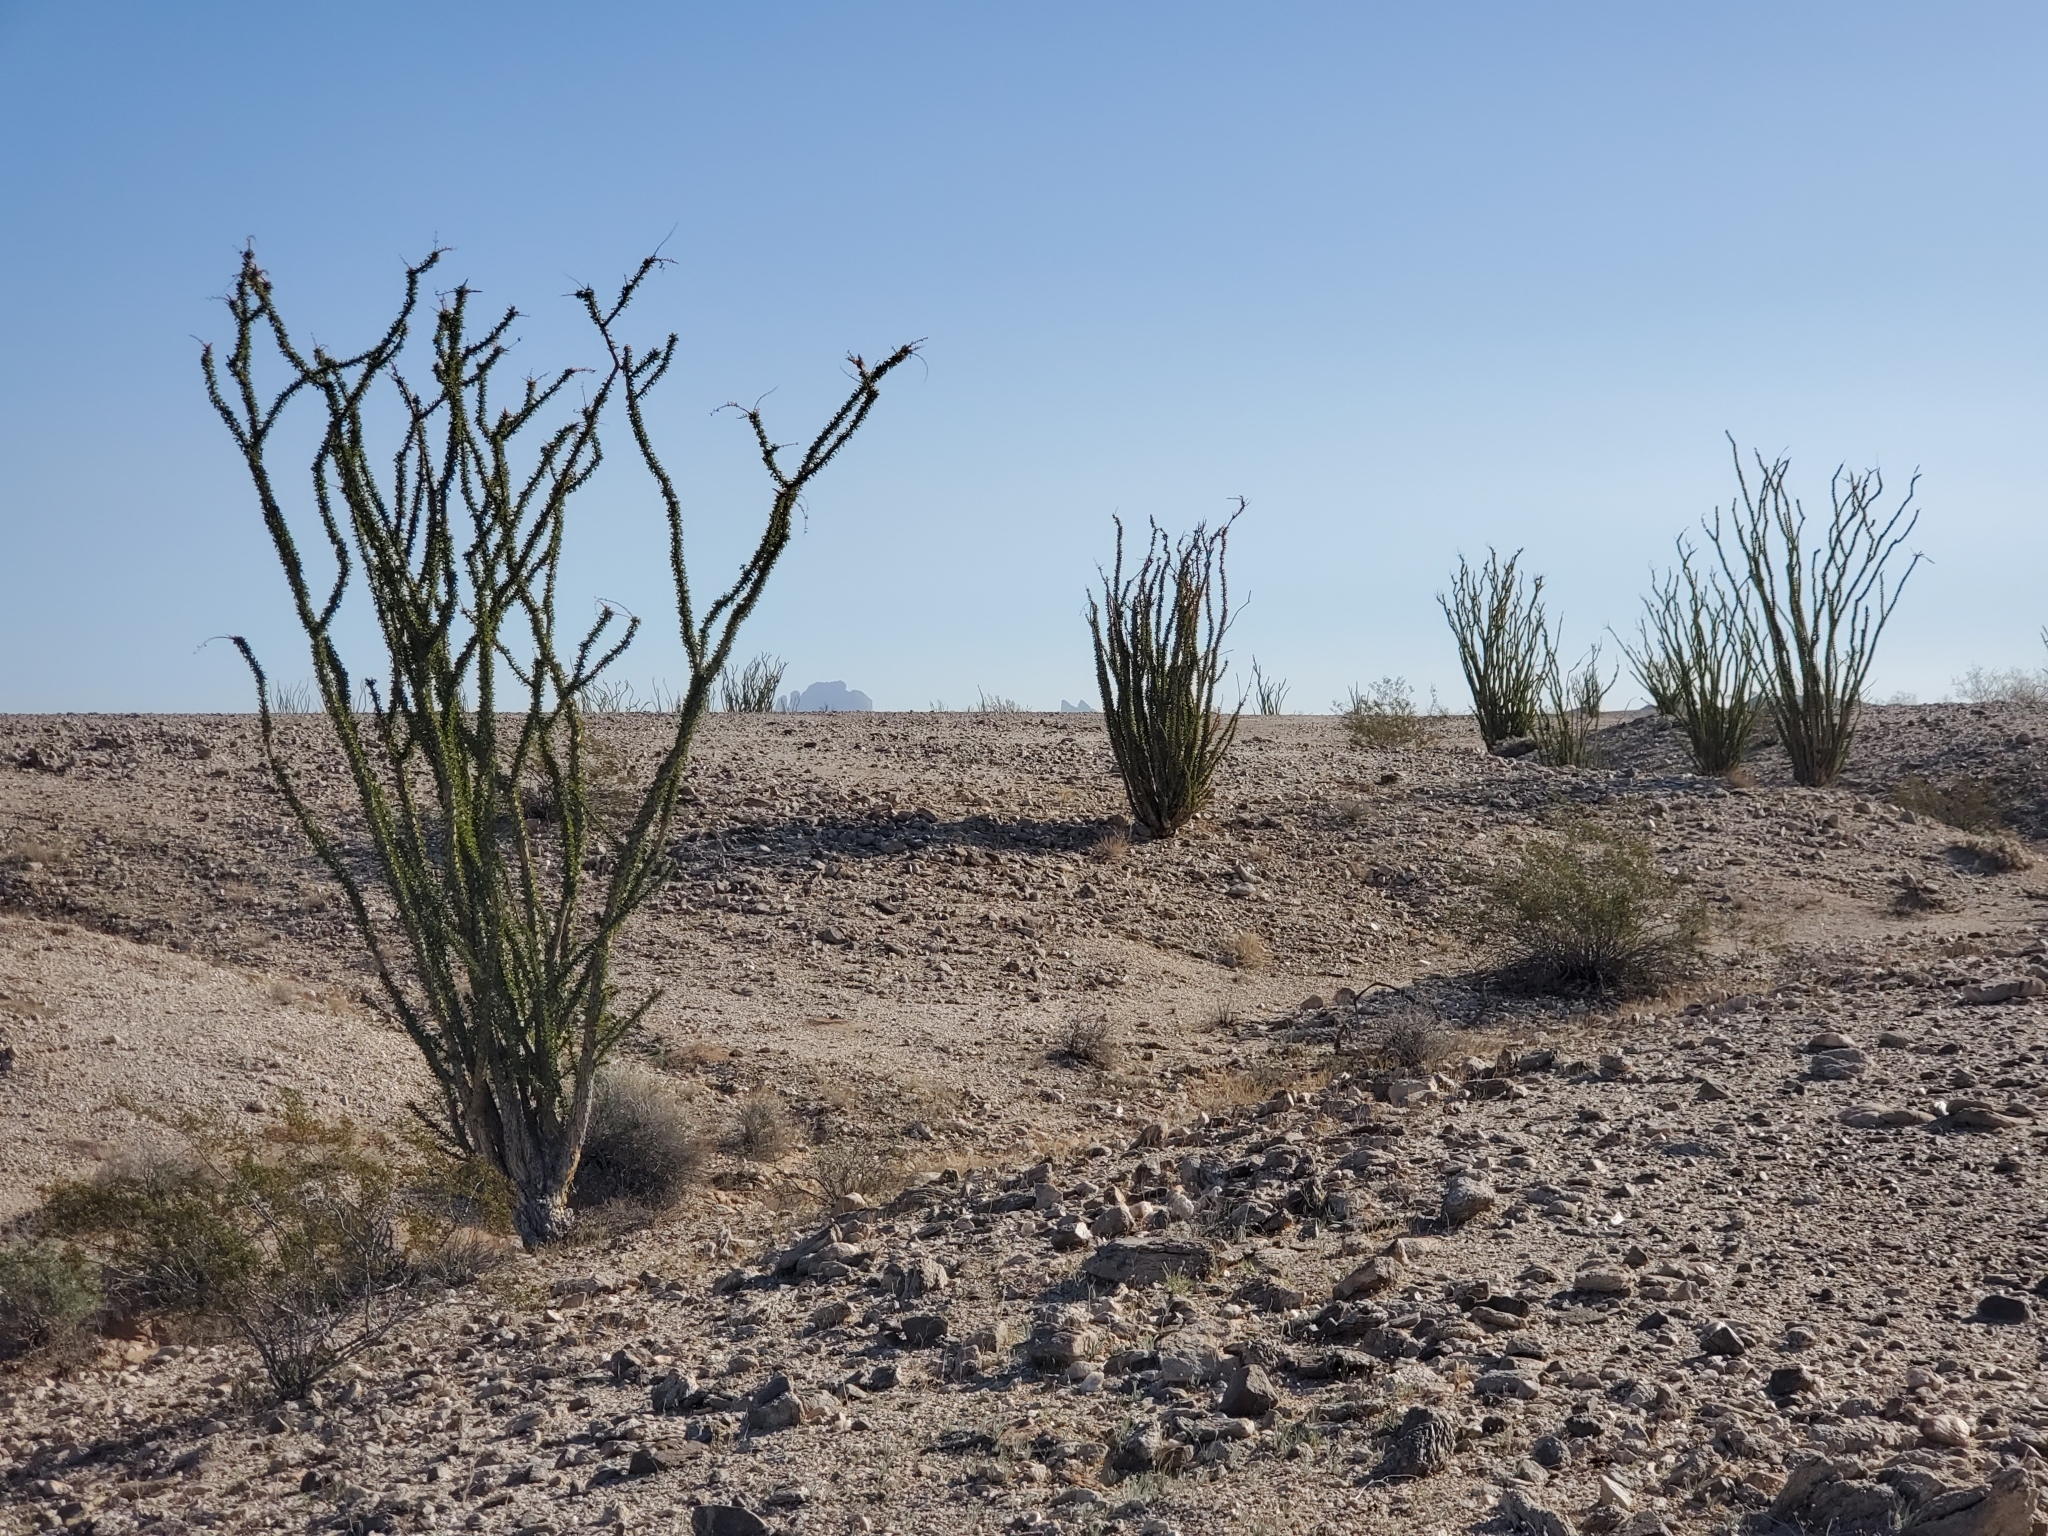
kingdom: Plantae
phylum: Tracheophyta
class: Magnoliopsida
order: Ericales
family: Fouquieriaceae
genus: Fouquieria
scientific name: Fouquieria splendens
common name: Vine-cactus
